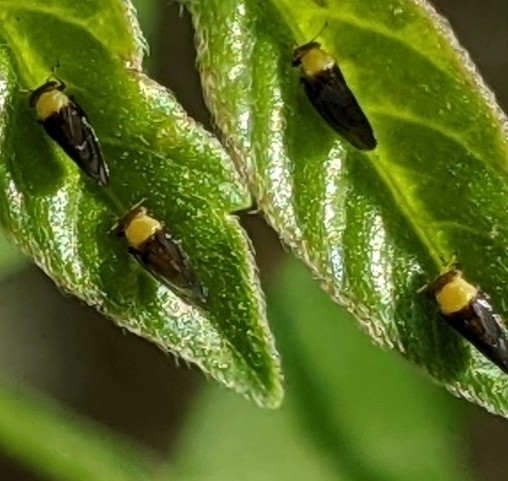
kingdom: Animalia
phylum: Arthropoda
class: Insecta
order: Hemiptera
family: Calophyidae
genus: Calophya
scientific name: Calophya nigripennis
